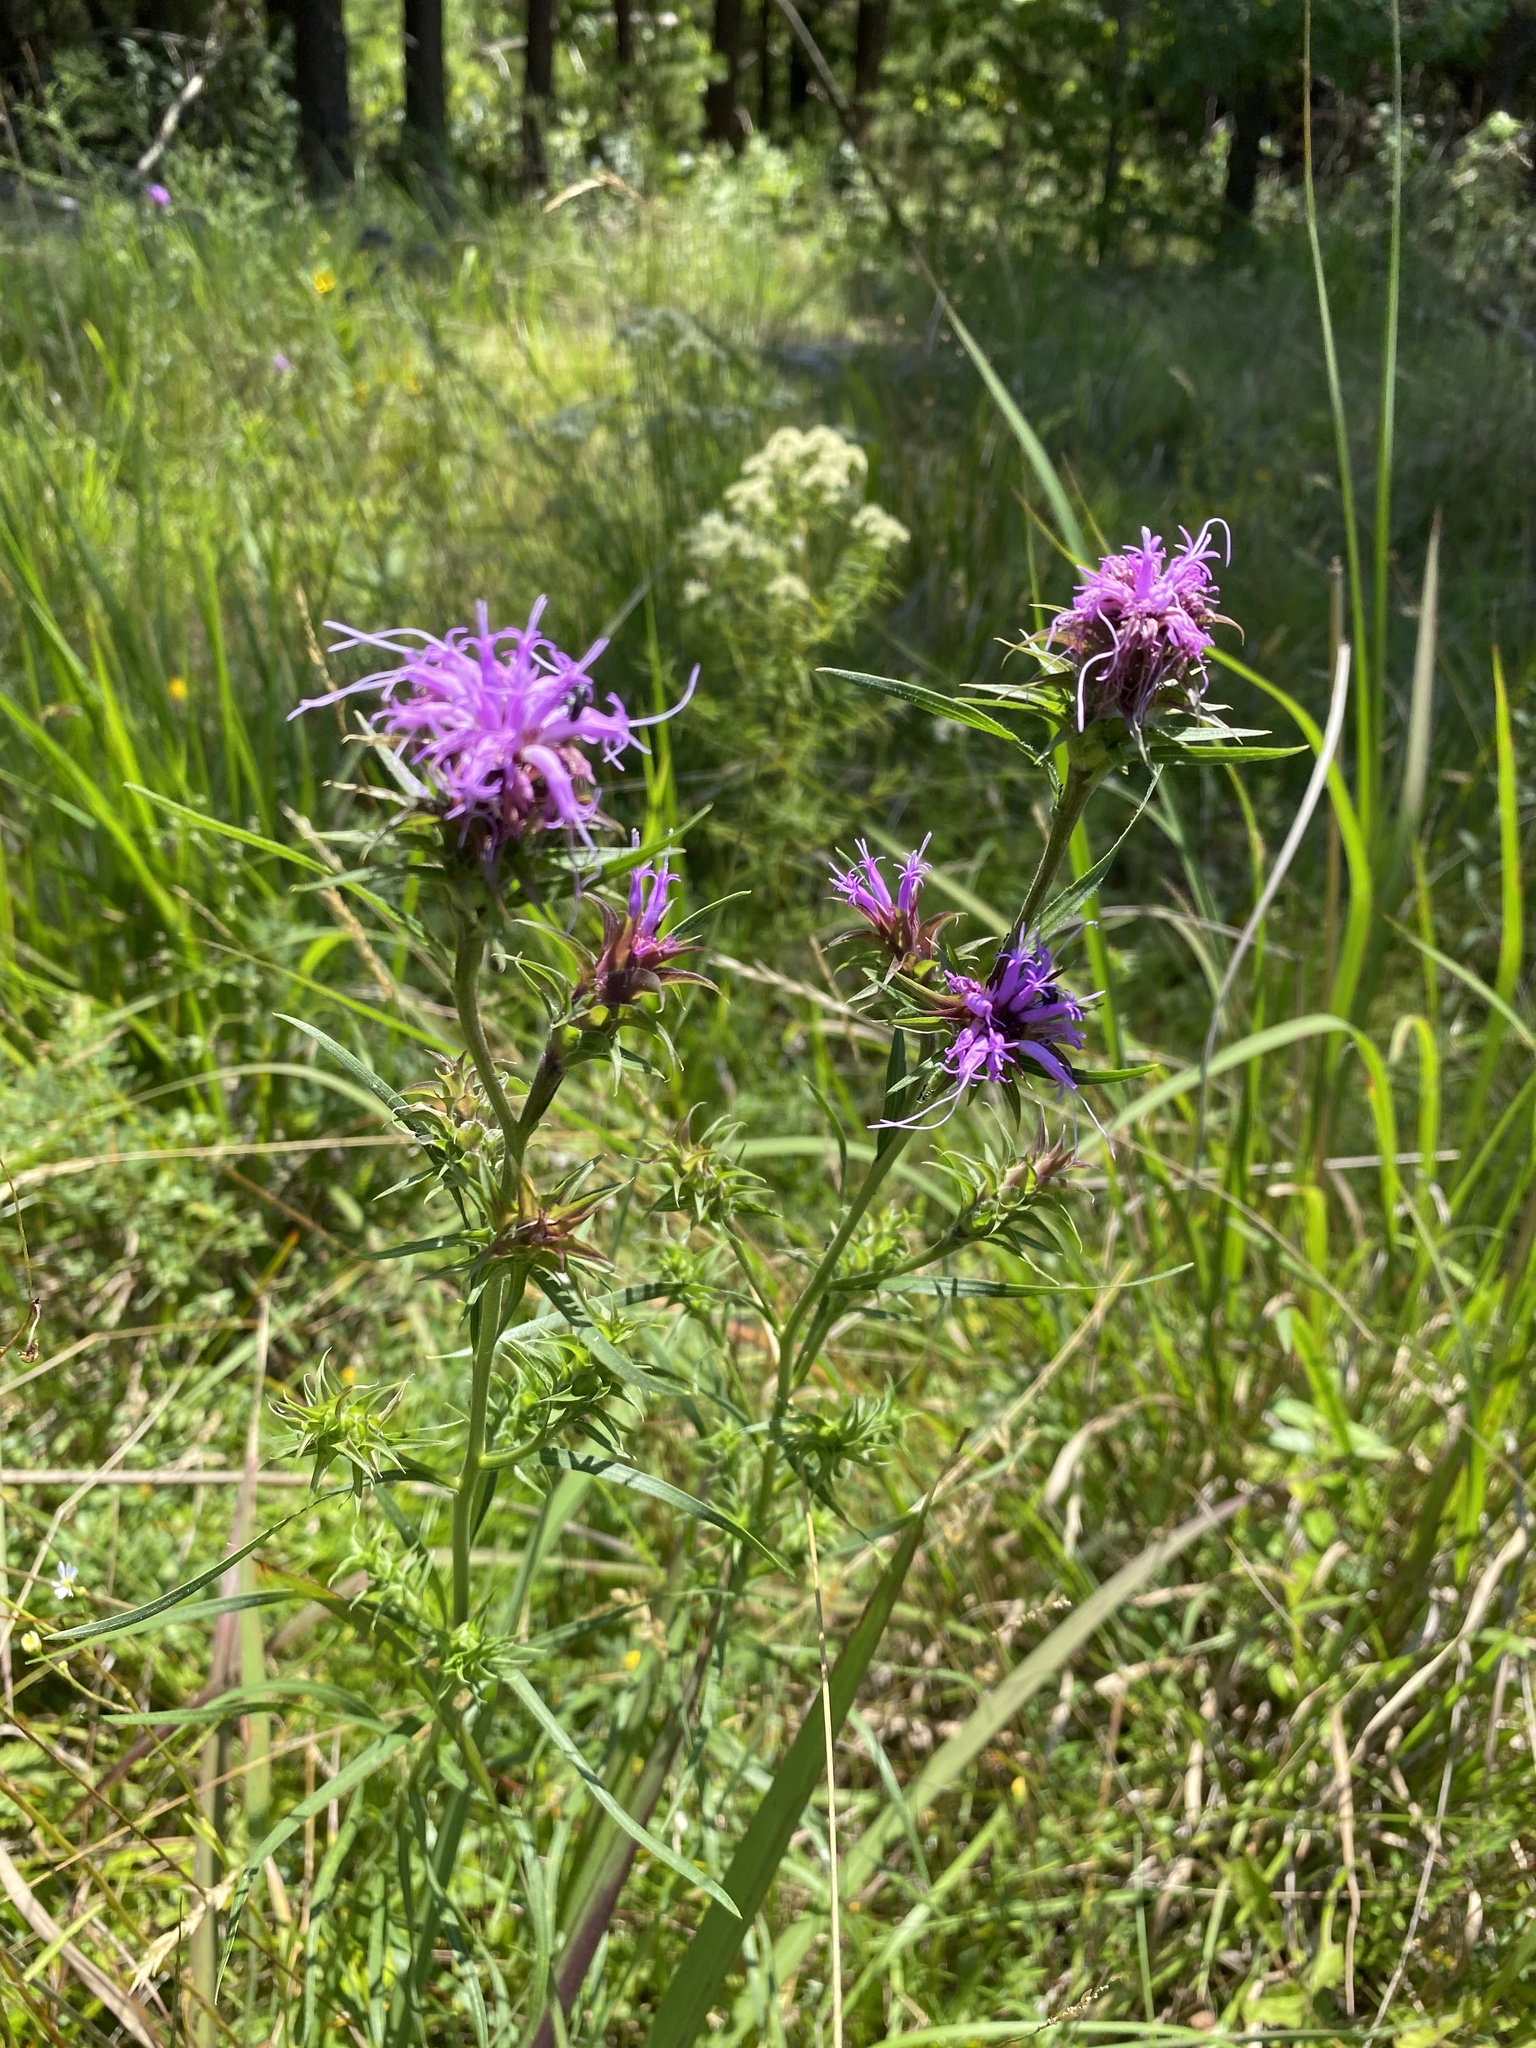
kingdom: Plantae
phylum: Tracheophyta
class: Magnoliopsida
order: Asterales
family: Asteraceae
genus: Liatris
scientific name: Liatris squarrosa
